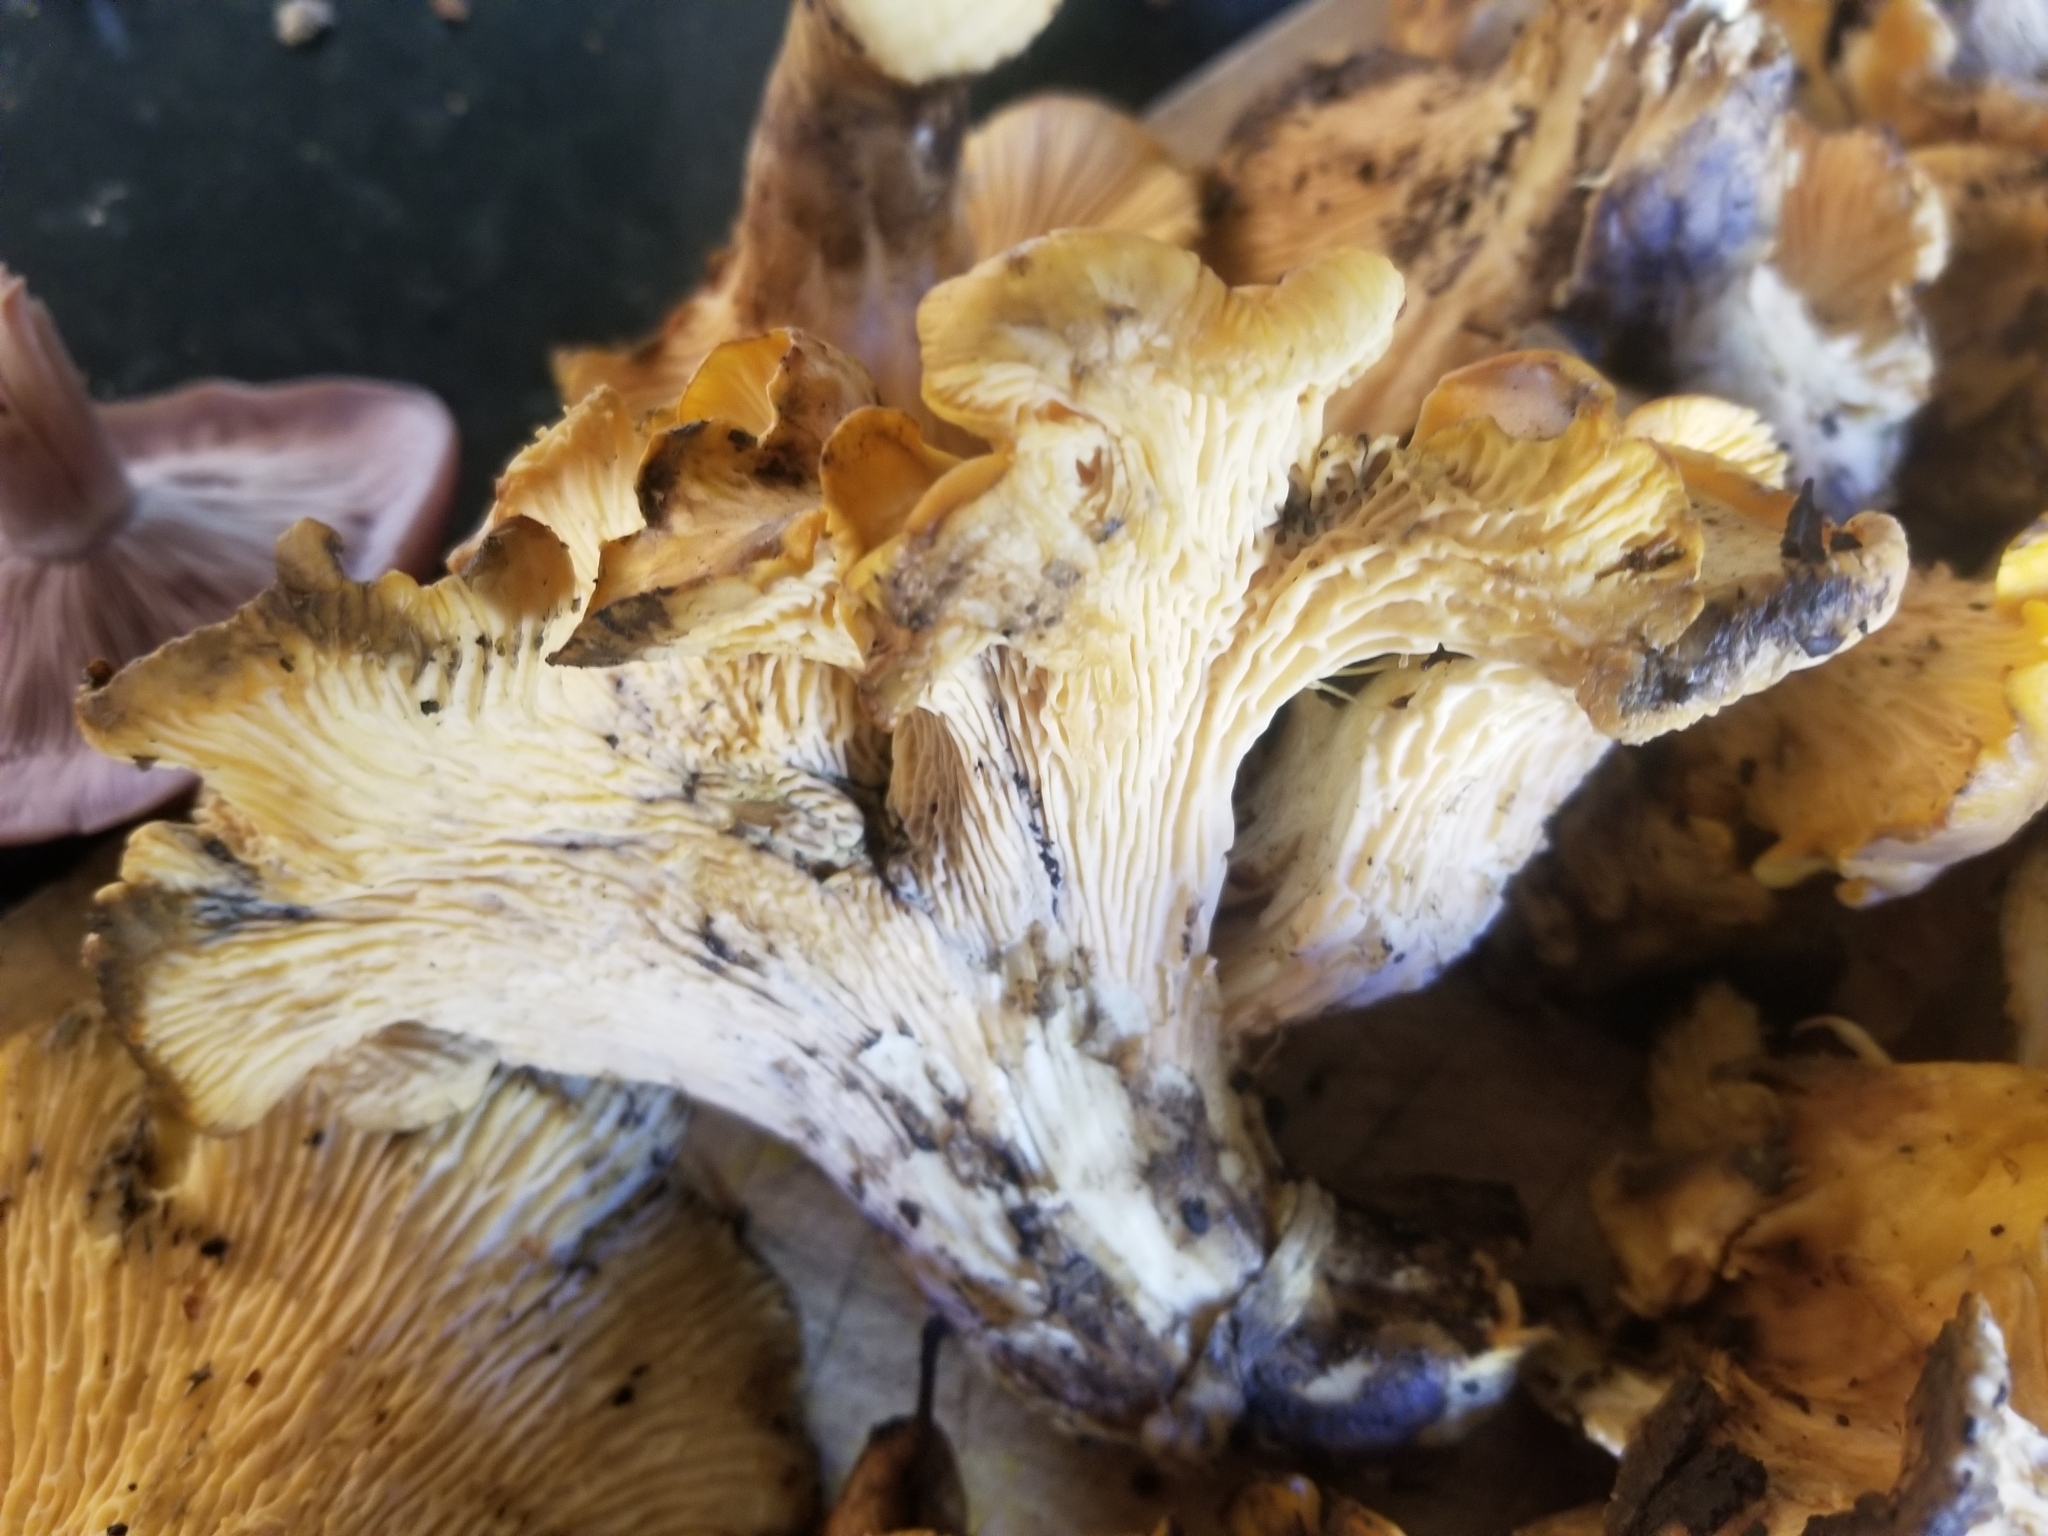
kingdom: Fungi
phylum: Basidiomycota
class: Agaricomycetes
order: Cantharellales
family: Hydnaceae
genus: Cantharellus
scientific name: Cantharellus californicus
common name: California golden chanterelle
